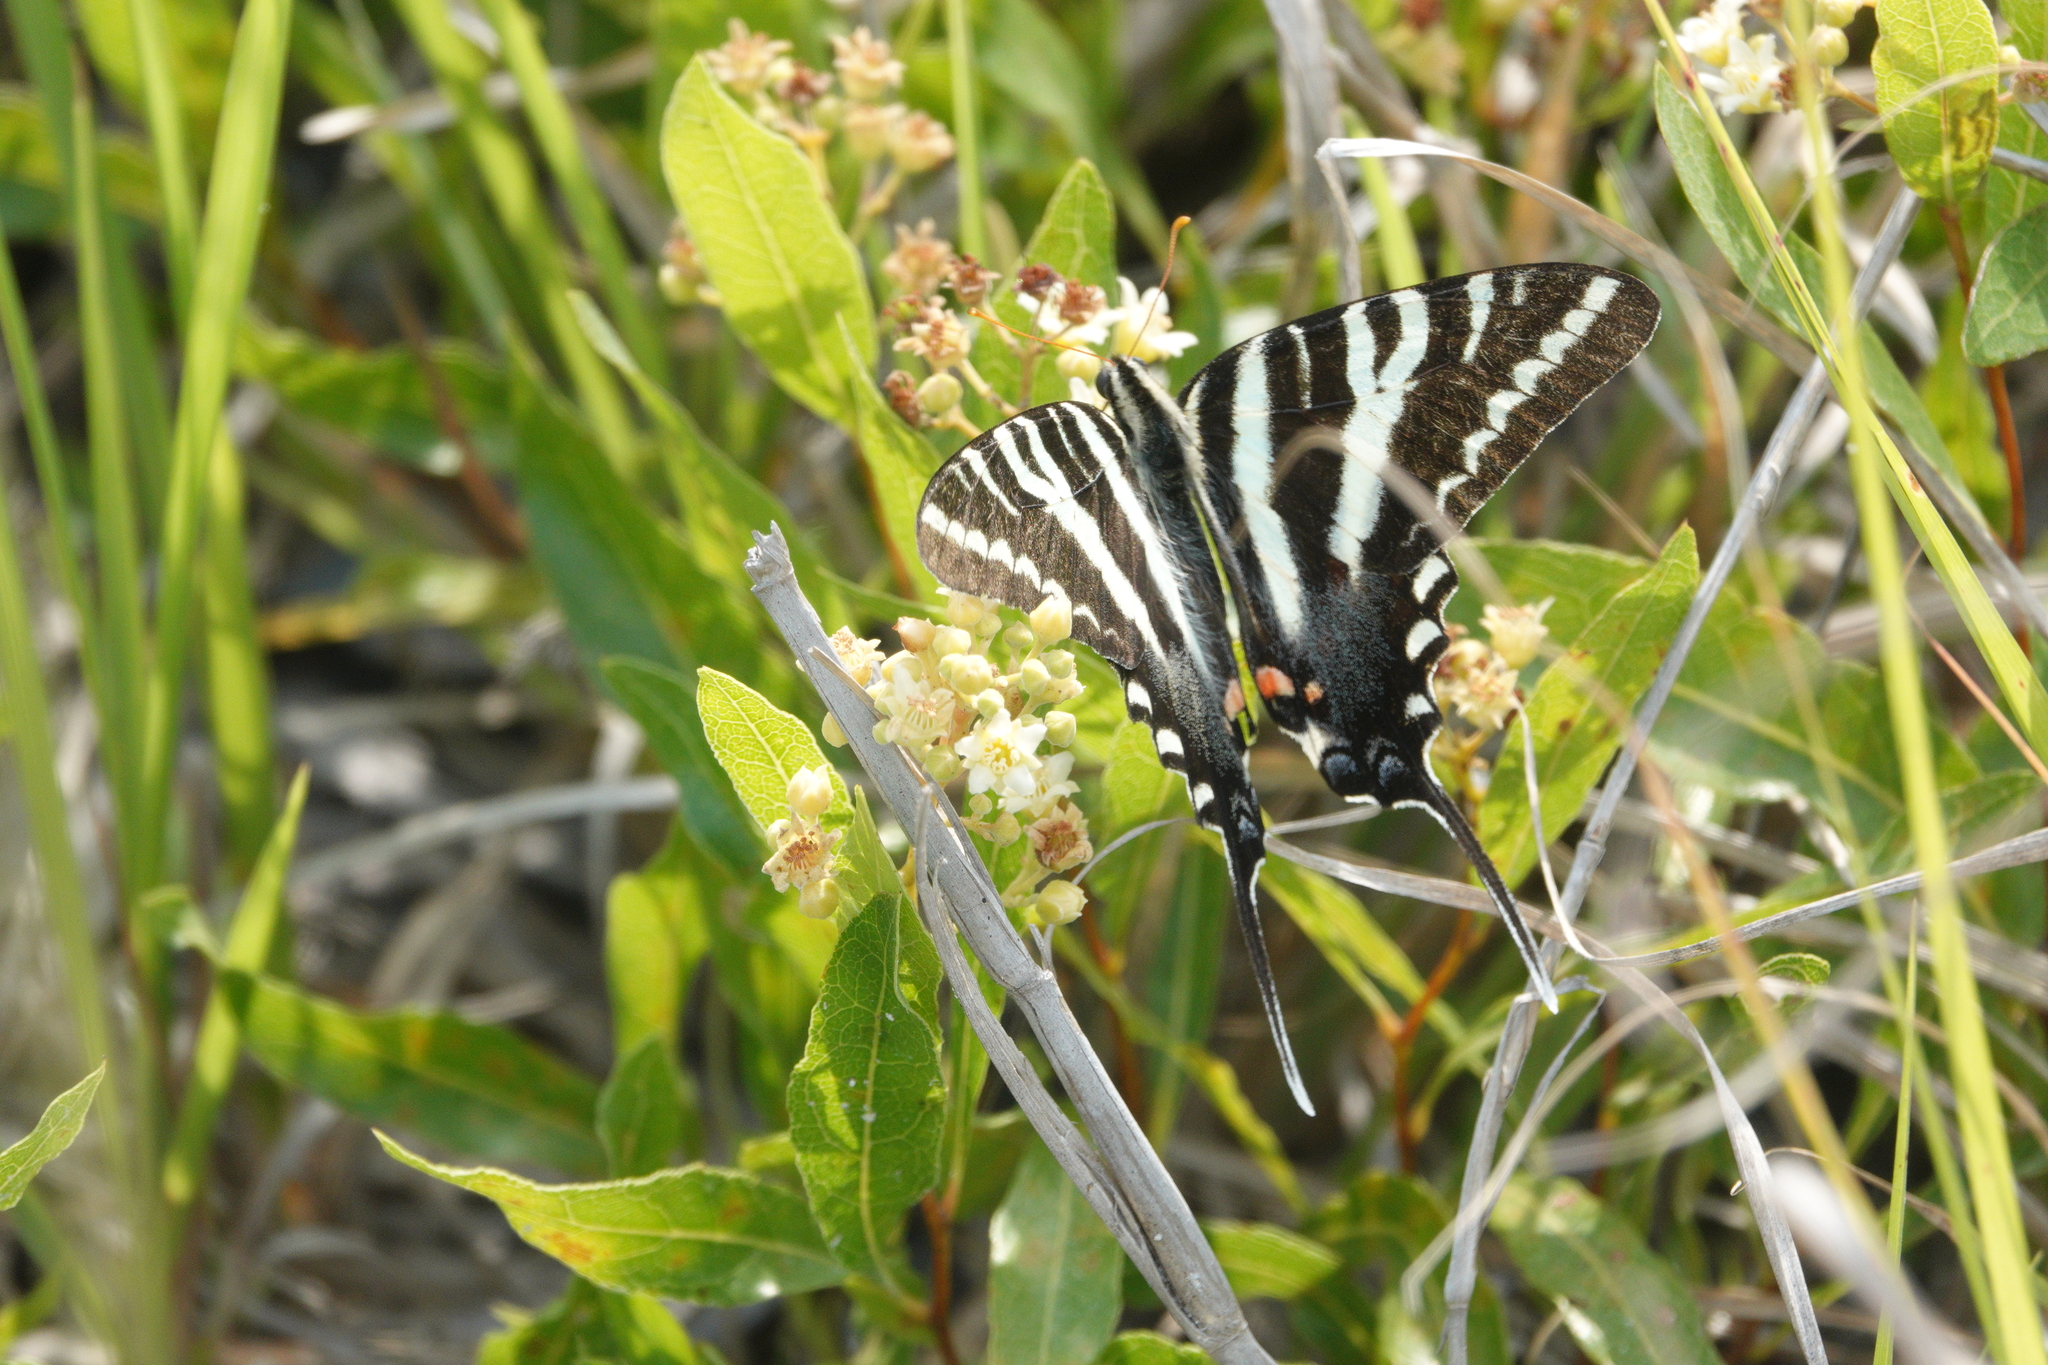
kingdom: Animalia
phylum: Arthropoda
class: Insecta
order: Lepidoptera
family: Papilionidae
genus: Protographium
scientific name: Protographium marcellus
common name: Zebra swallowtail
